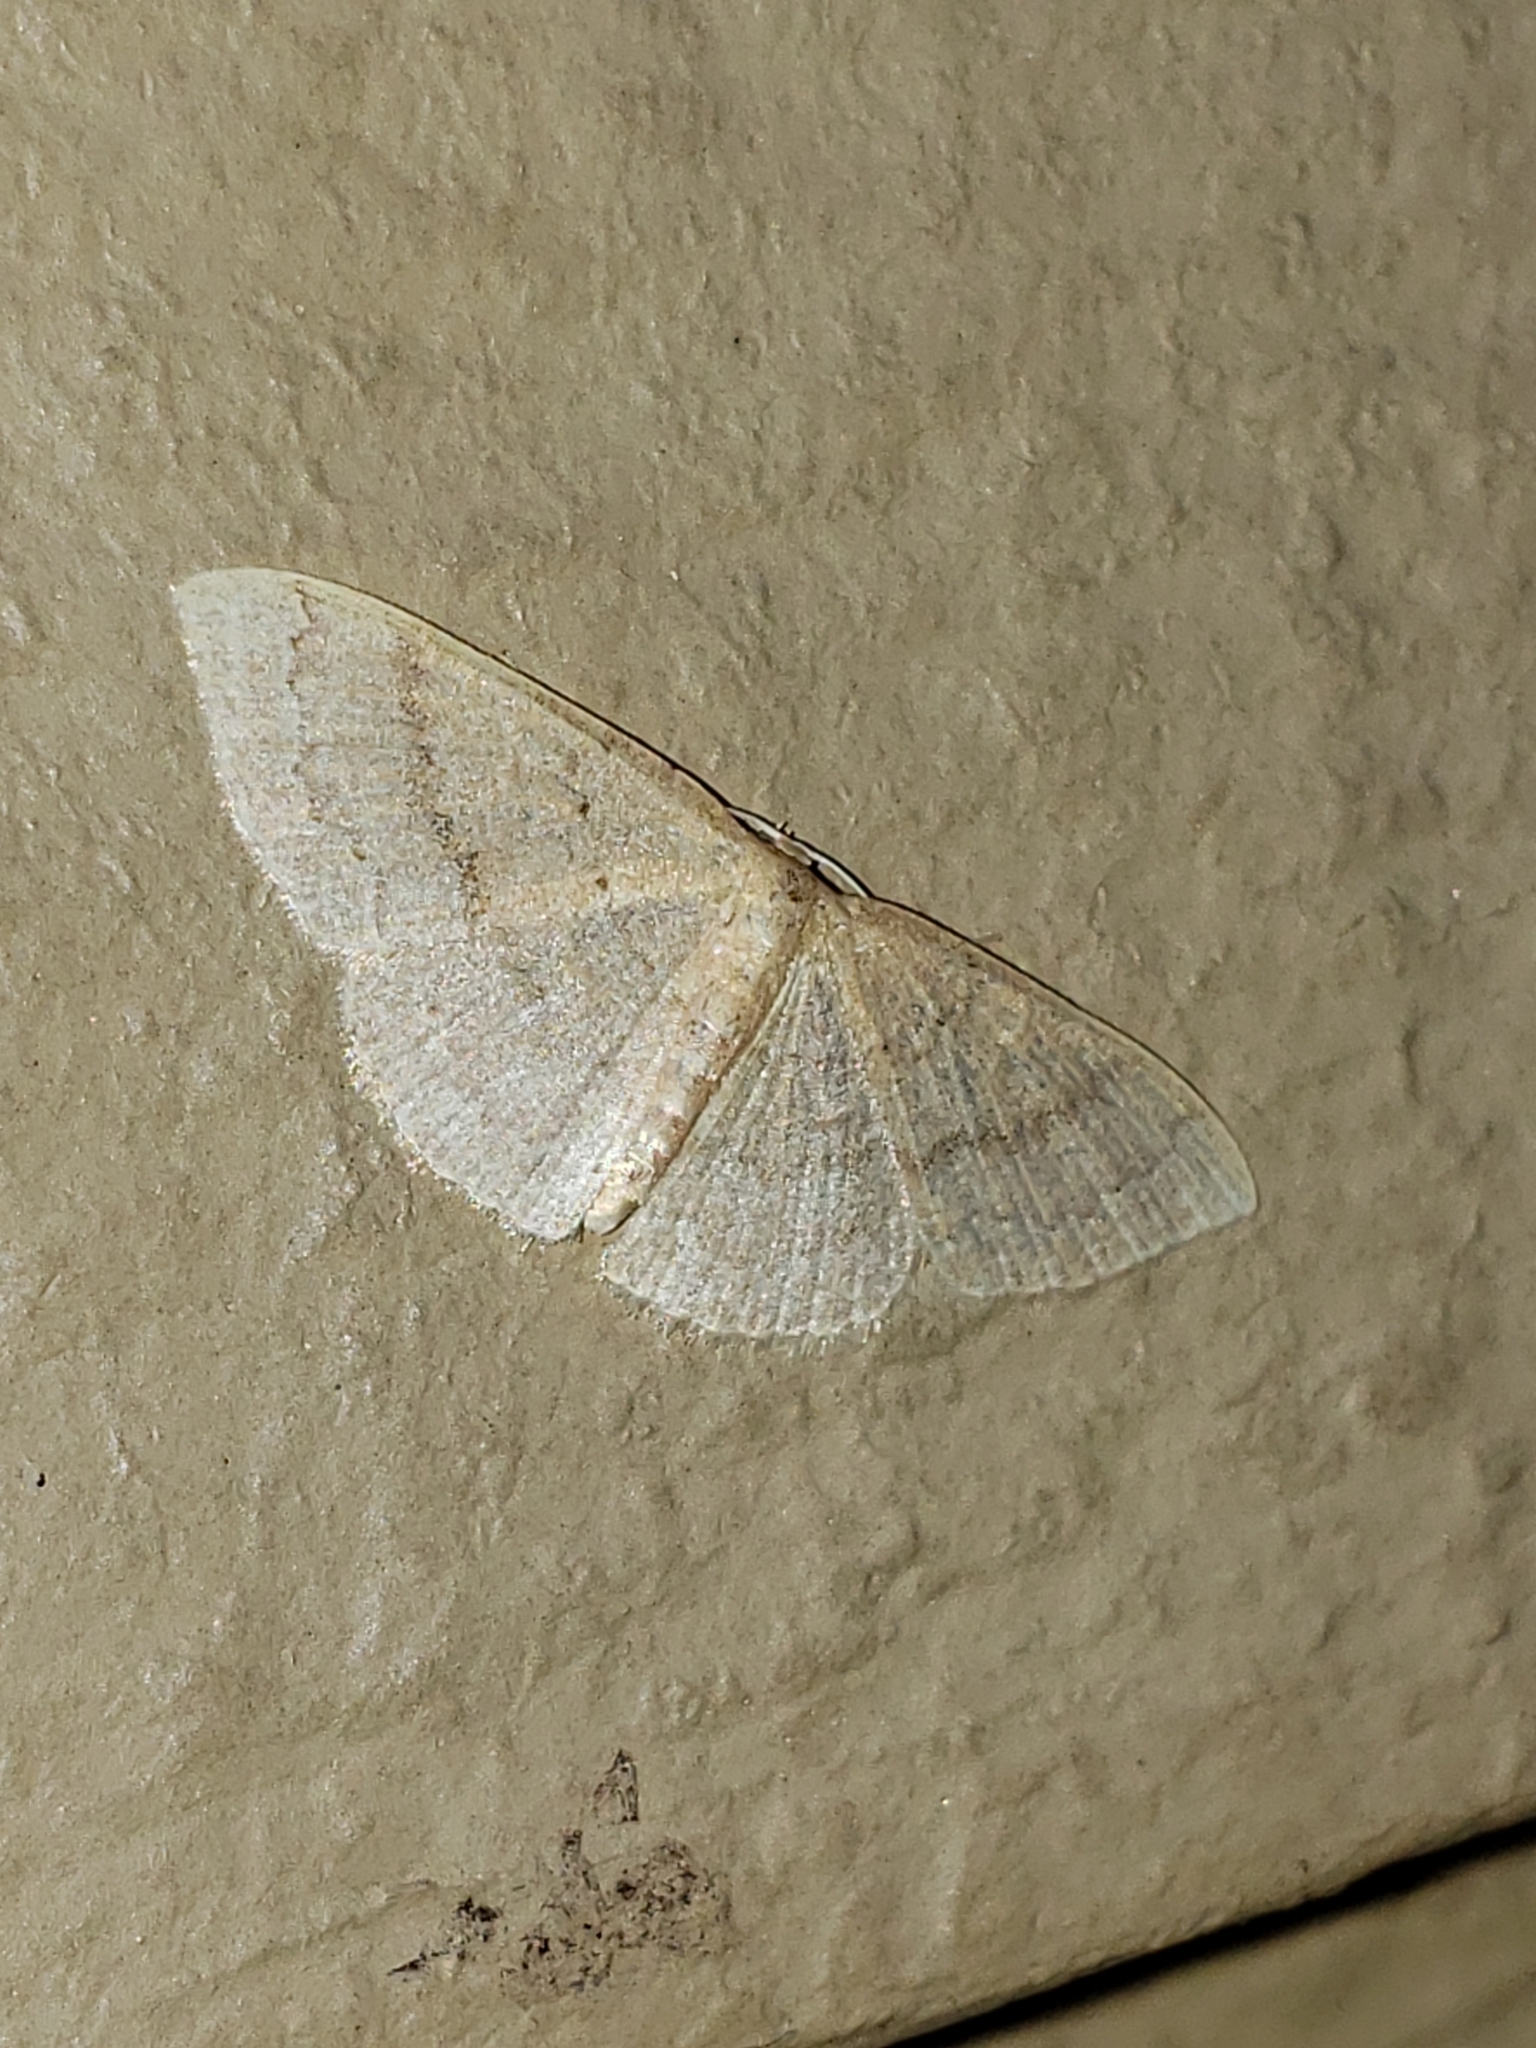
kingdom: Animalia
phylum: Arthropoda
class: Insecta
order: Lepidoptera
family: Geometridae
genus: Pleuroprucha
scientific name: Pleuroprucha insulsaria
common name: Common tan wave
